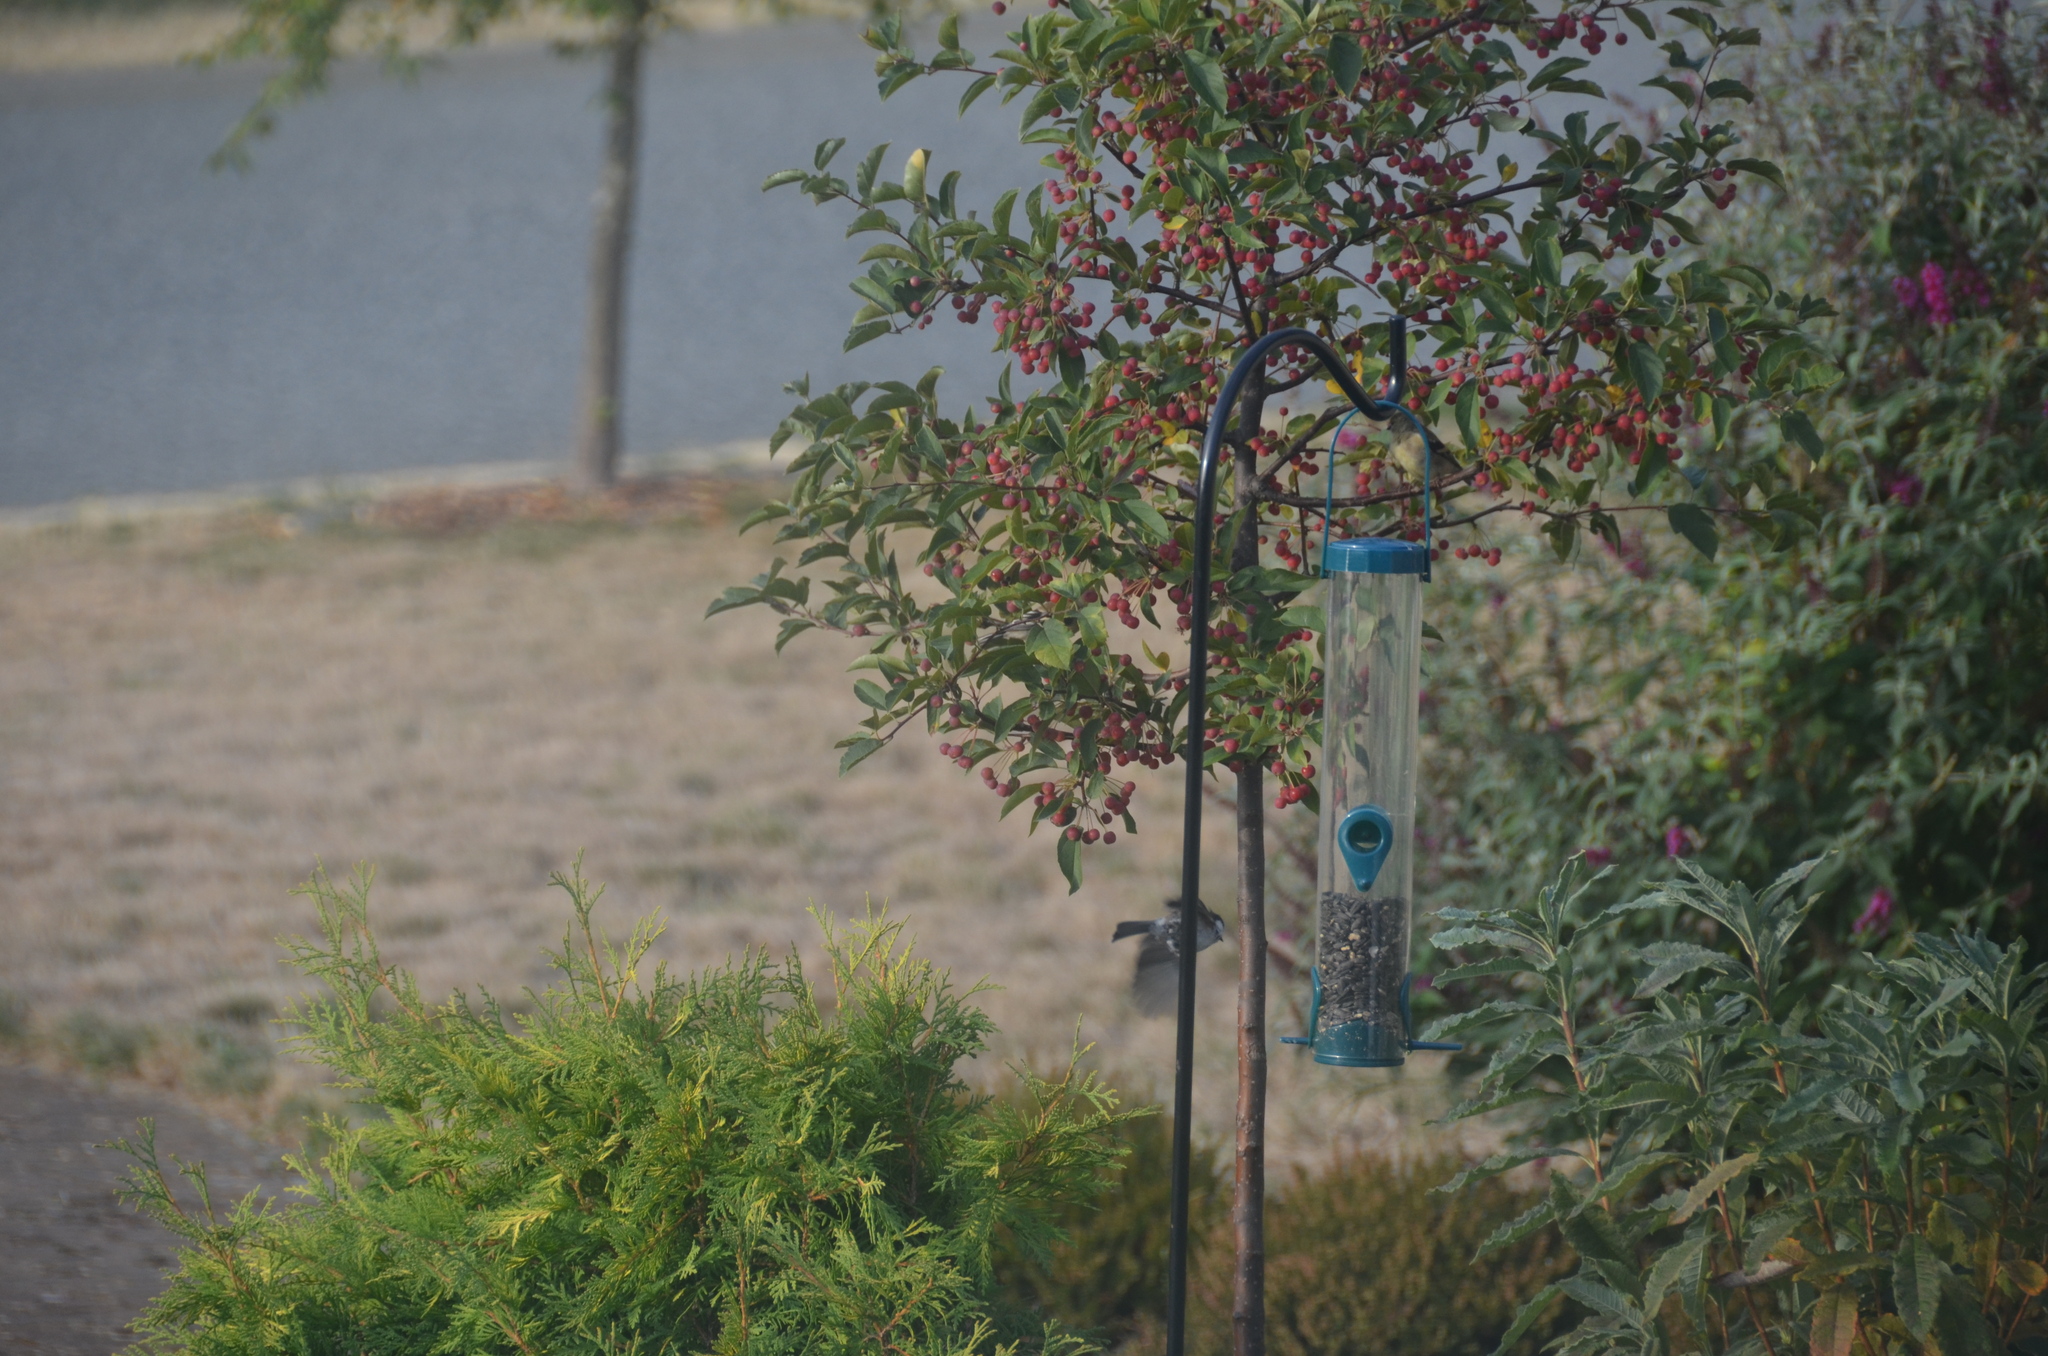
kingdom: Animalia
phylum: Chordata
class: Aves
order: Passeriformes
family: Paridae
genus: Poecile
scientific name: Poecile rufescens
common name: Chestnut-backed chickadee
